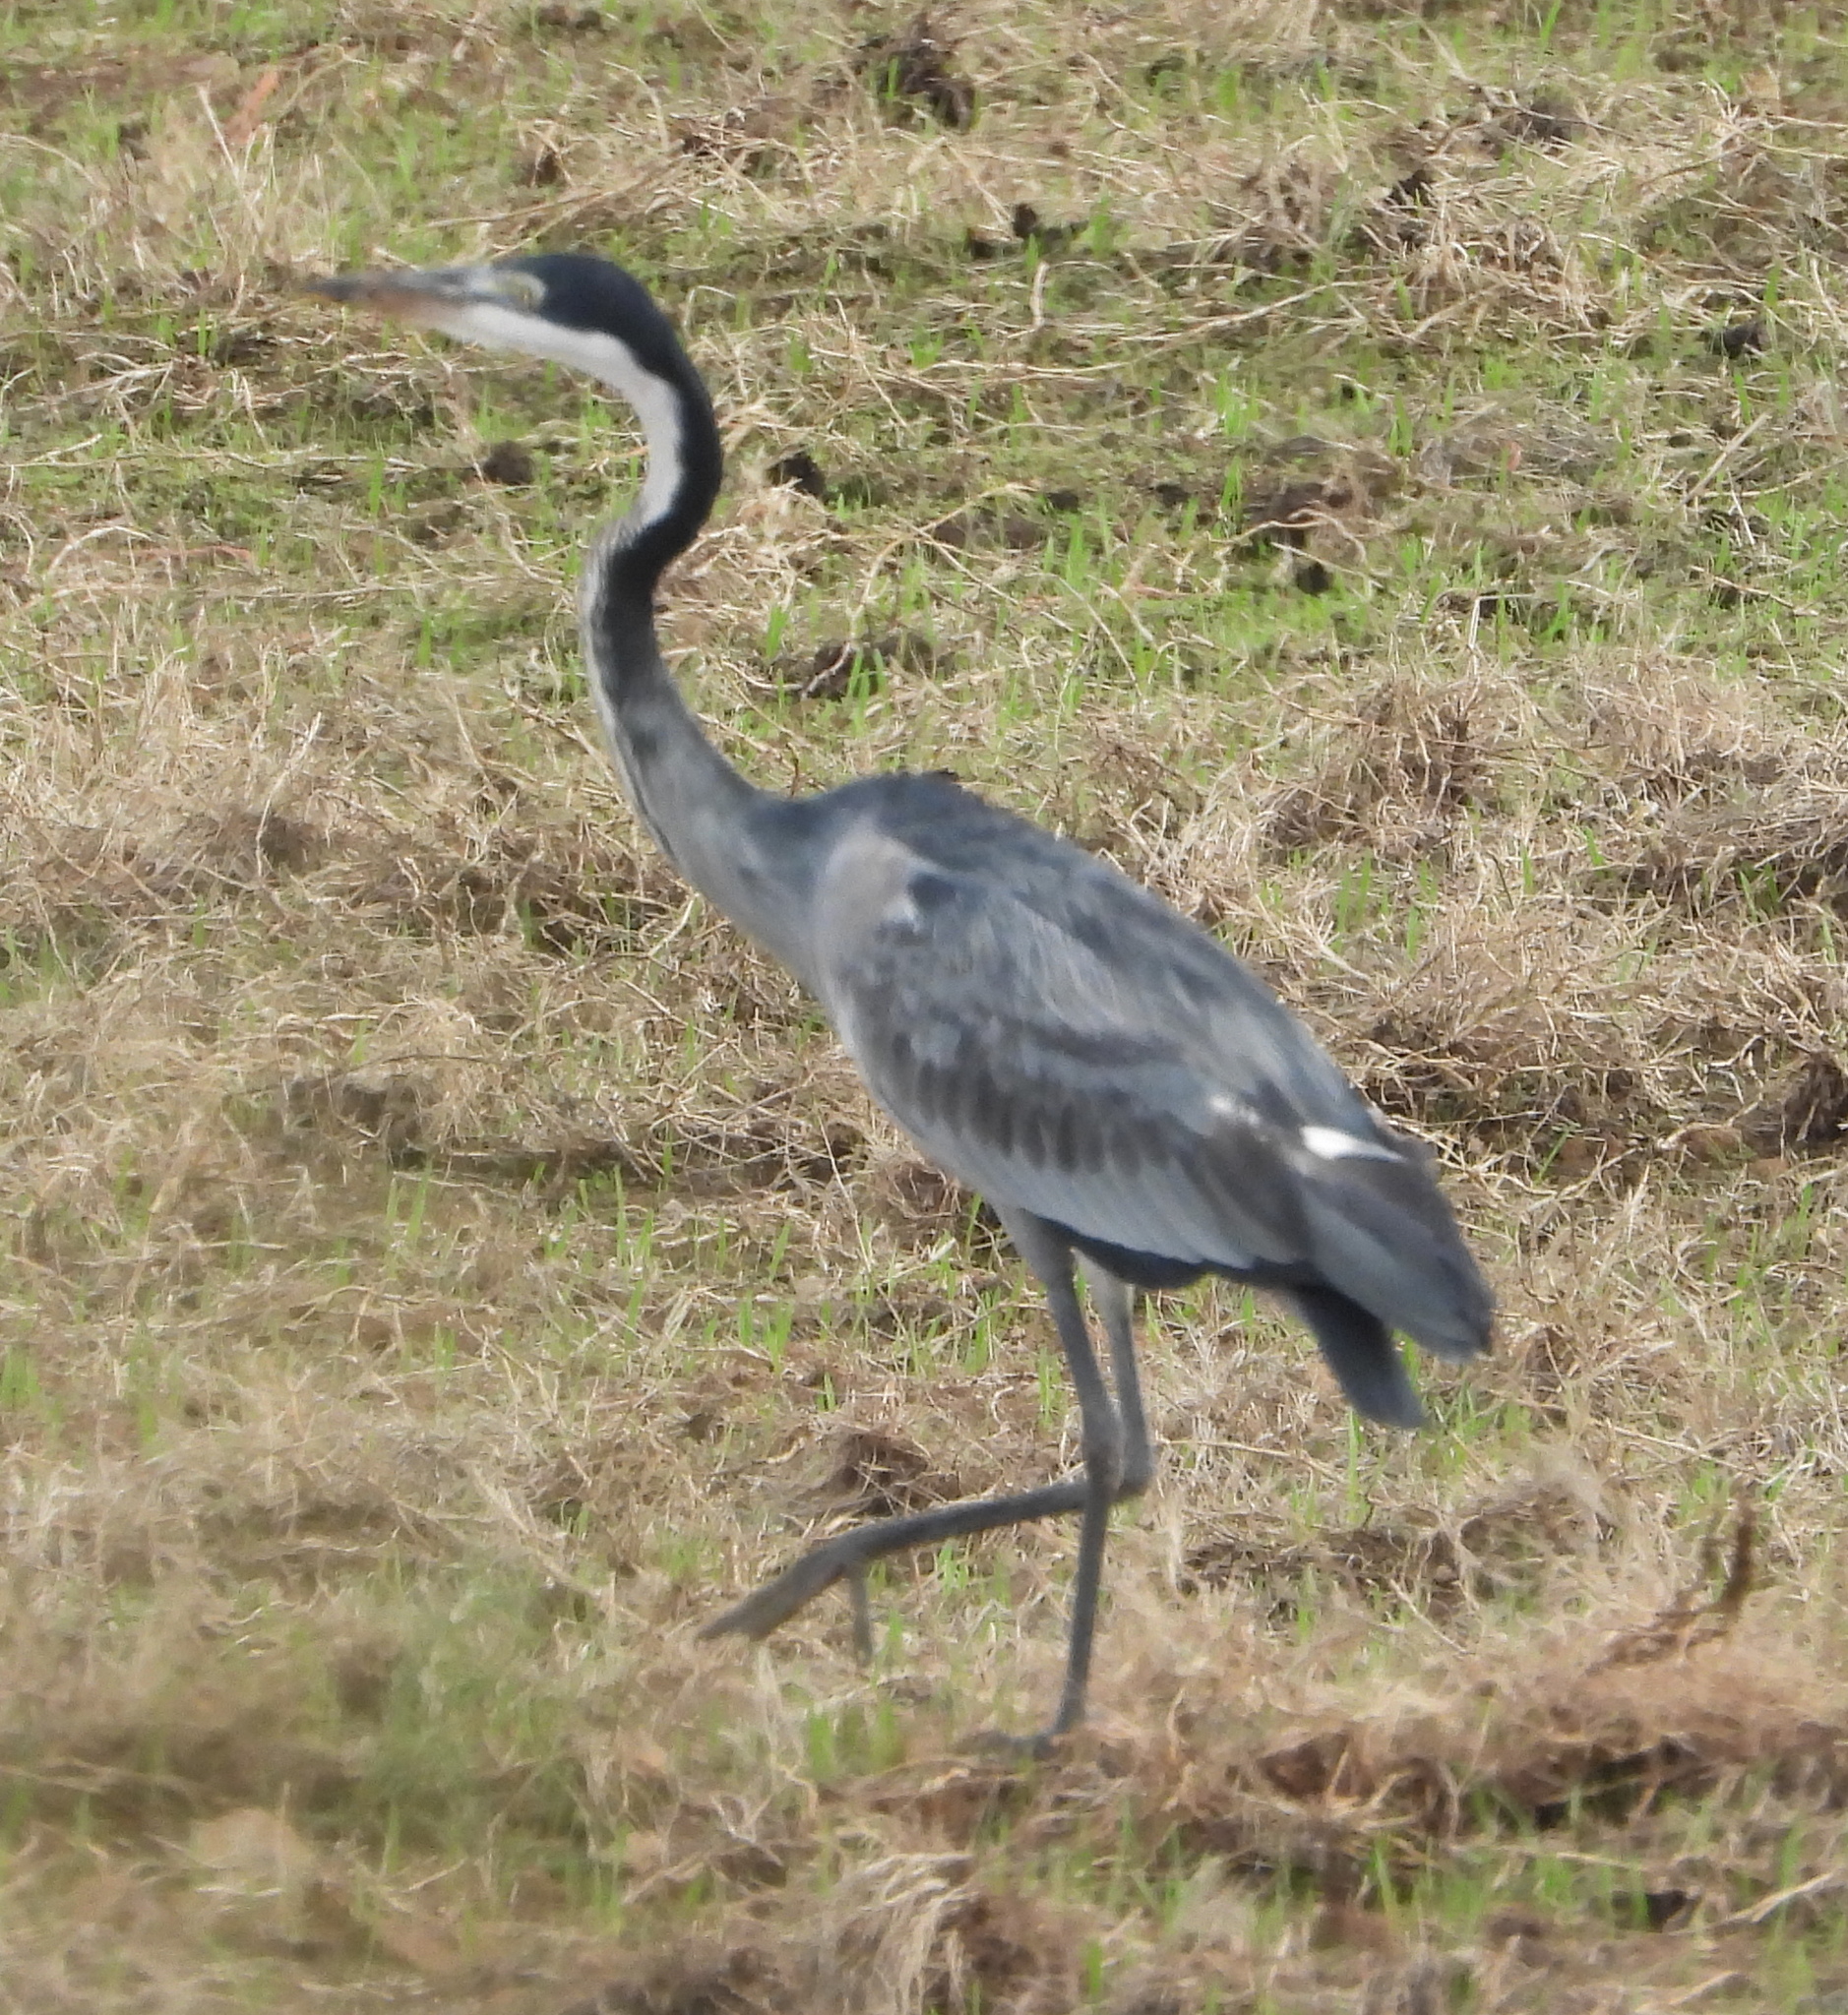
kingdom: Animalia
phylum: Chordata
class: Aves
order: Pelecaniformes
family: Ardeidae
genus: Ardea
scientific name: Ardea melanocephala
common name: Black-headed heron
